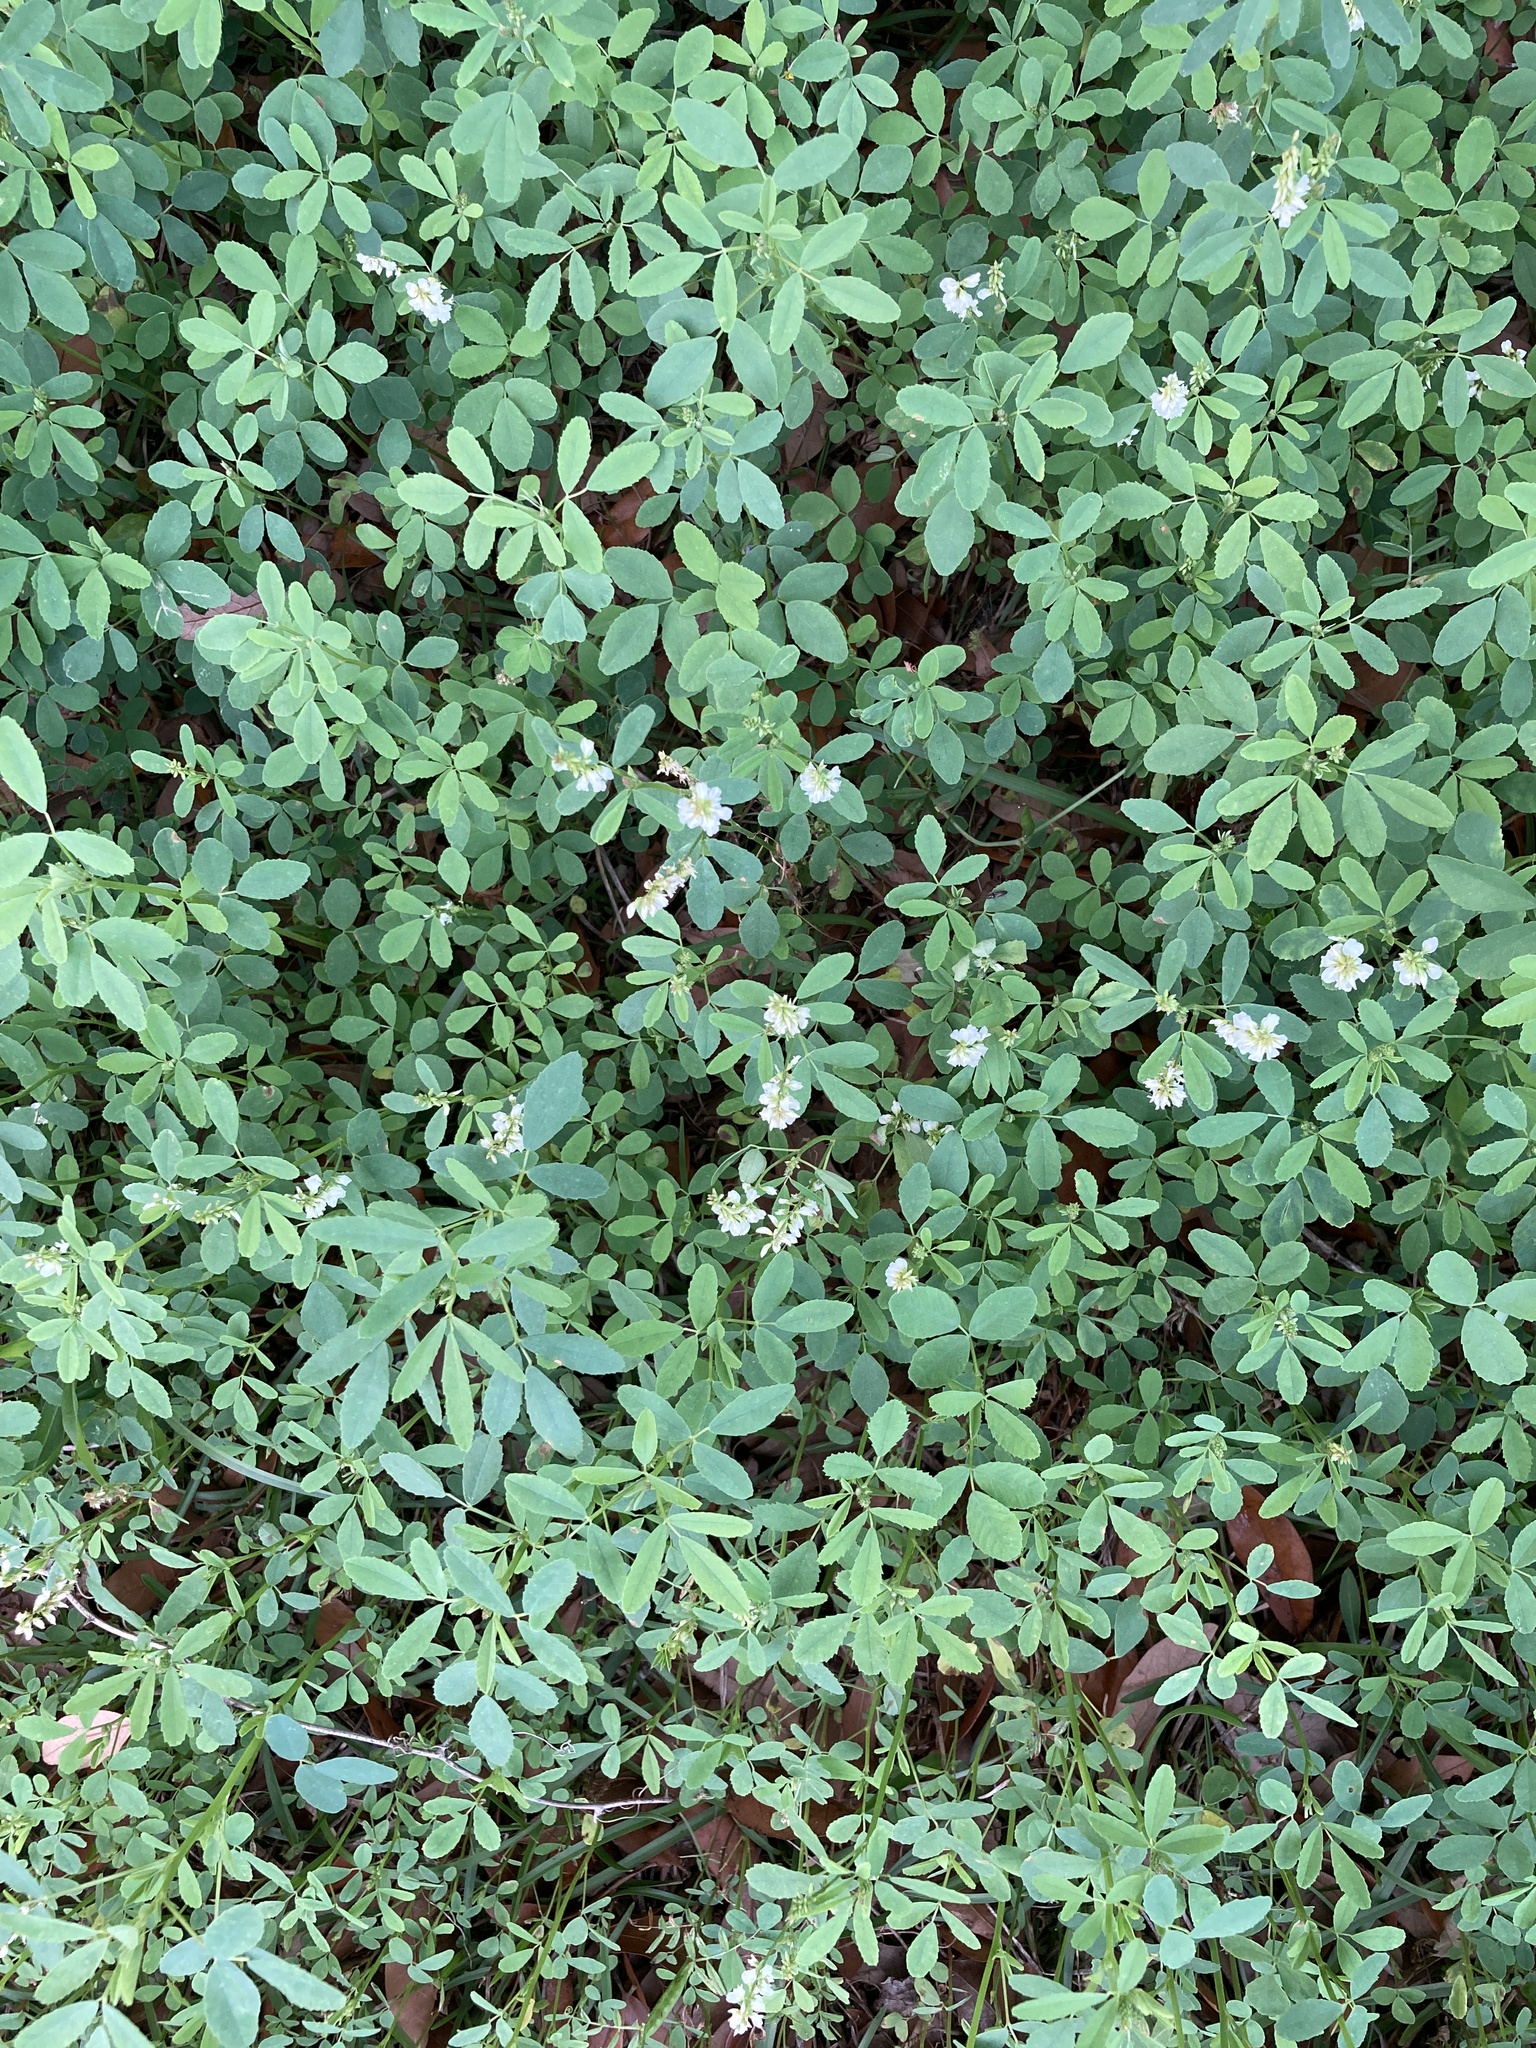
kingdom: Plantae
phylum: Tracheophyta
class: Magnoliopsida
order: Fabales
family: Fabaceae
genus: Melilotus
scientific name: Melilotus albus
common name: White melilot
